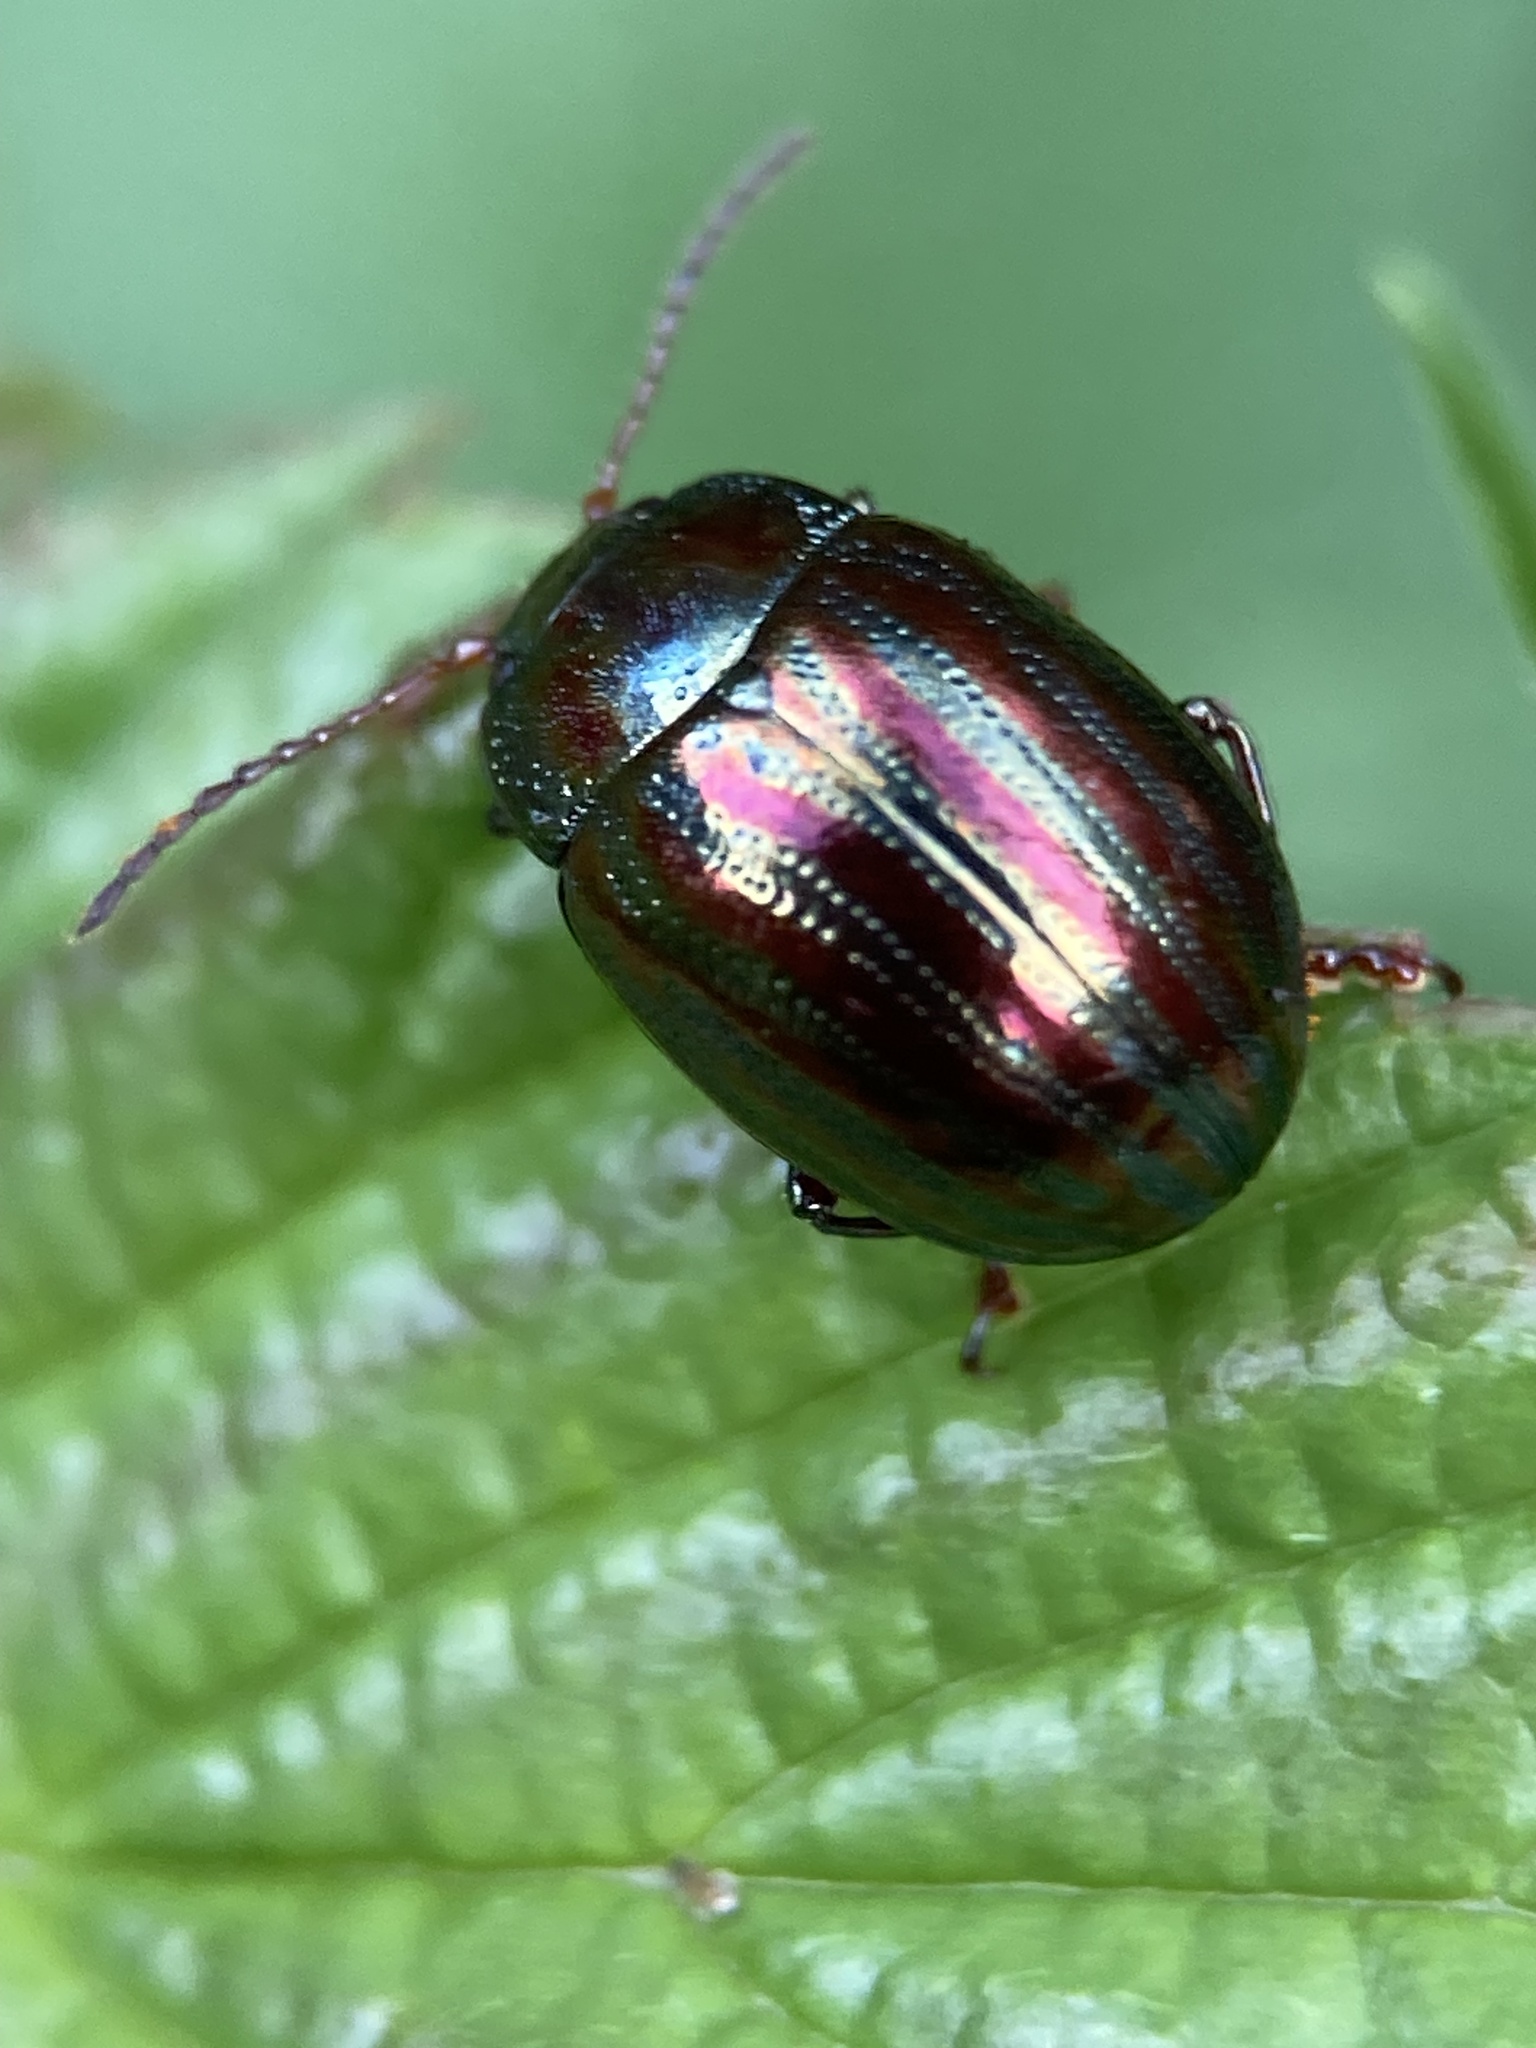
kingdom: Animalia
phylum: Arthropoda
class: Insecta
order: Coleoptera
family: Chrysomelidae
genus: Chrysolina
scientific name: Chrysolina americana
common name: Rosemary beetle
